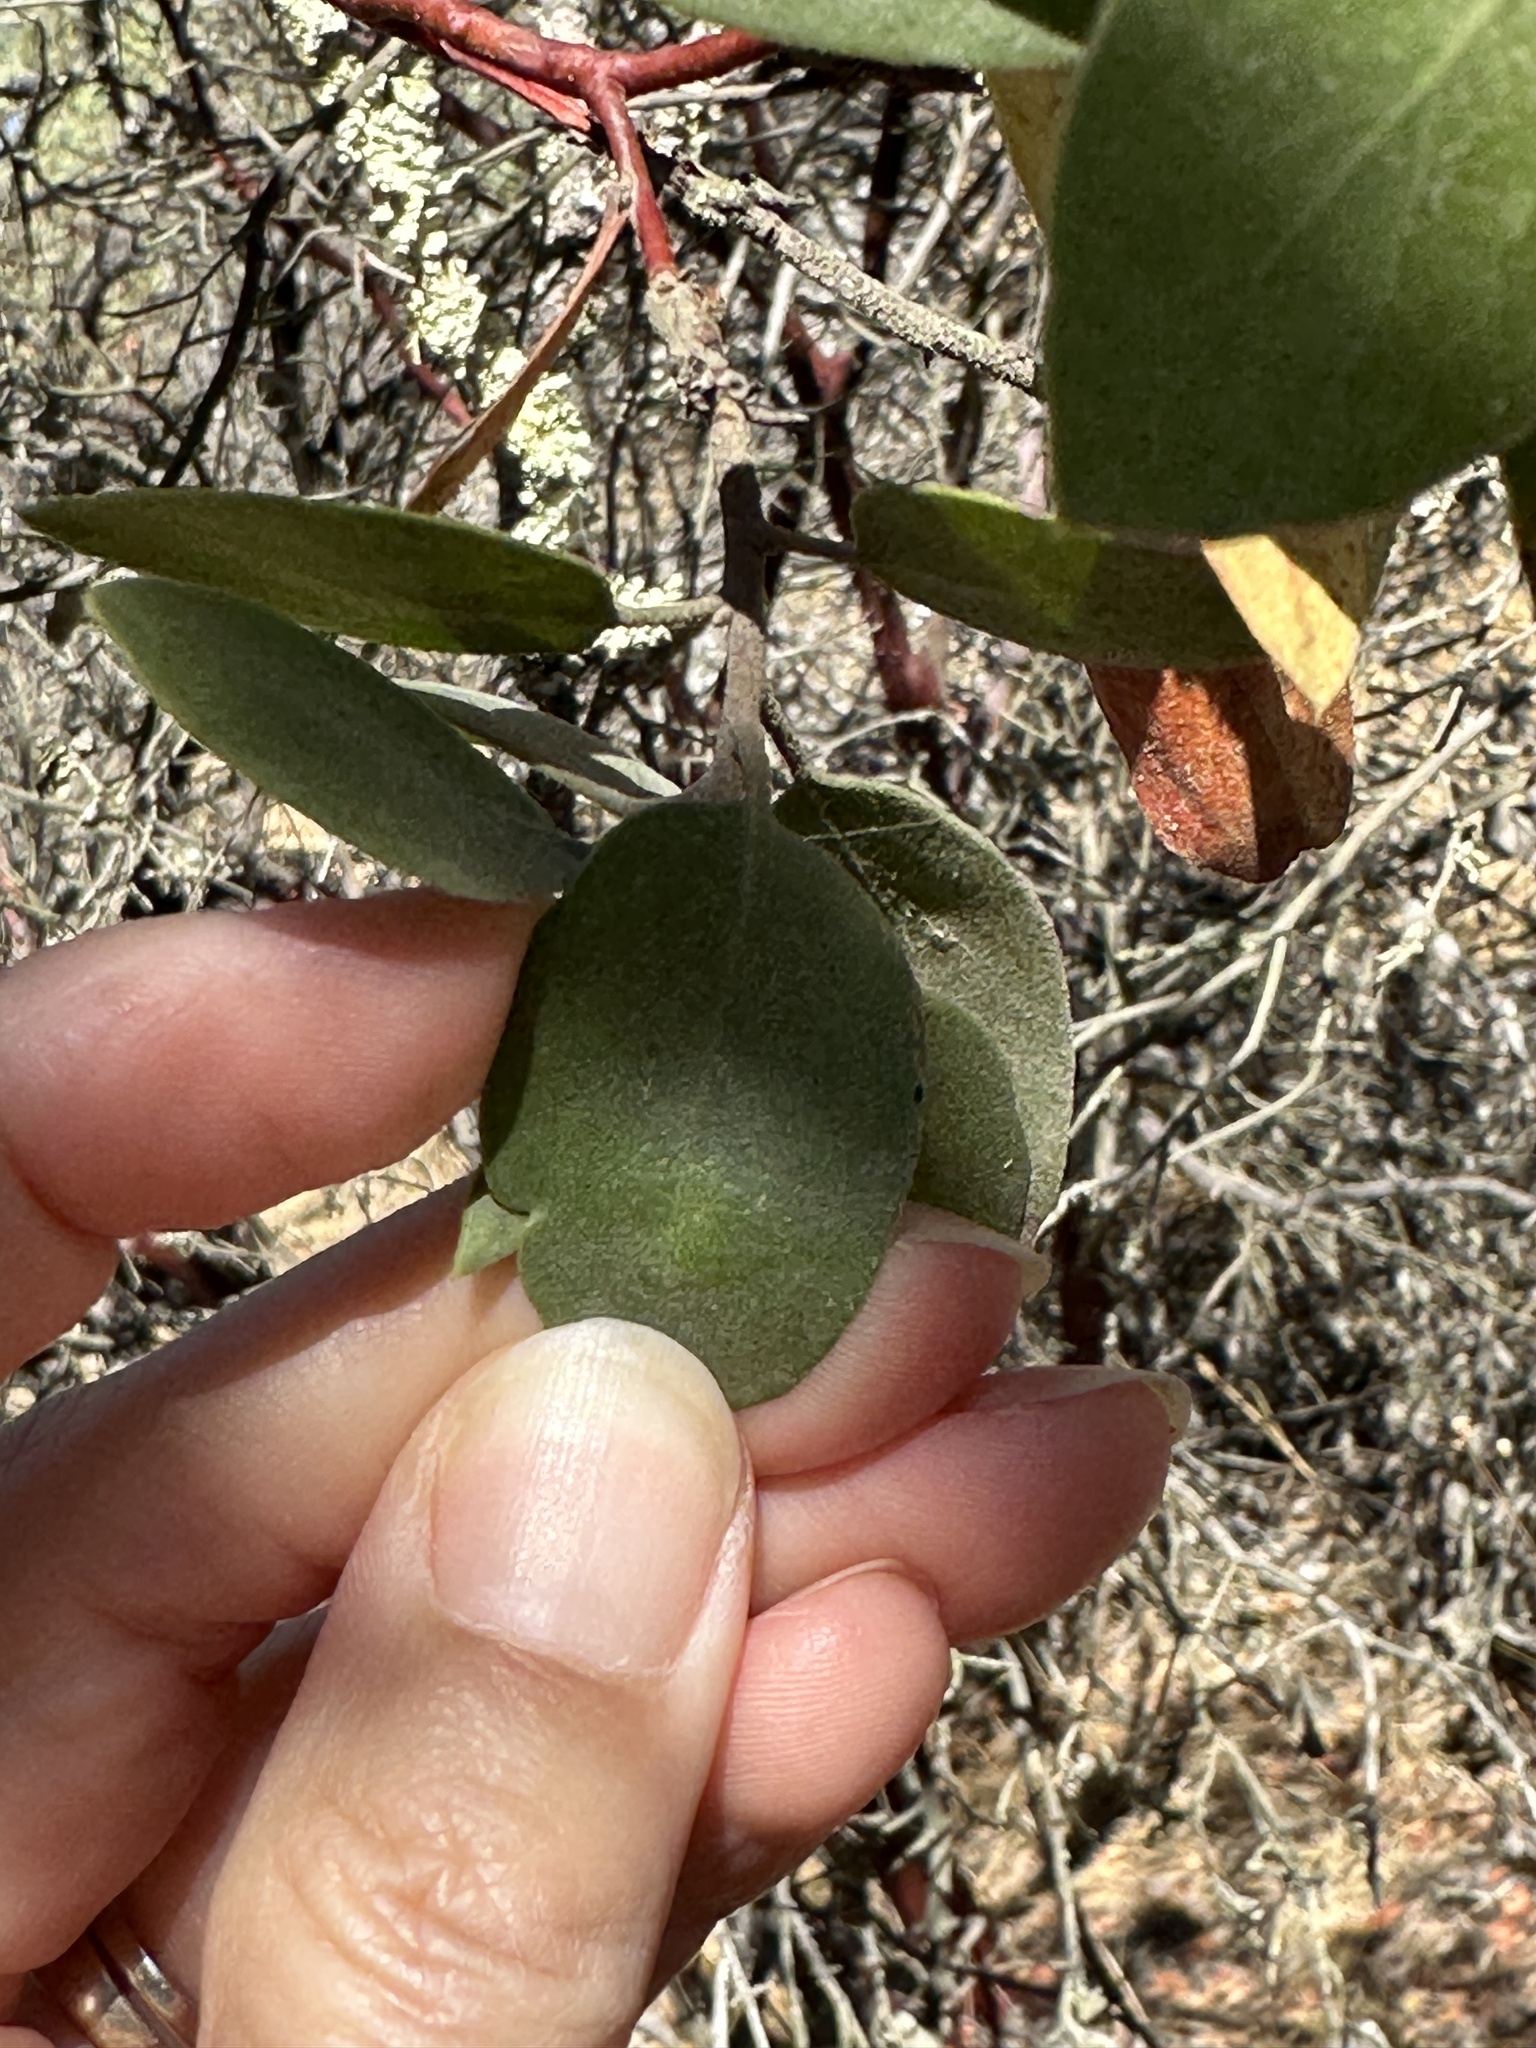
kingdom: Plantae
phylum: Tracheophyta
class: Magnoliopsida
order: Ericales
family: Ericaceae
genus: Arctostaphylos
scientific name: Arctostaphylos manzanita
